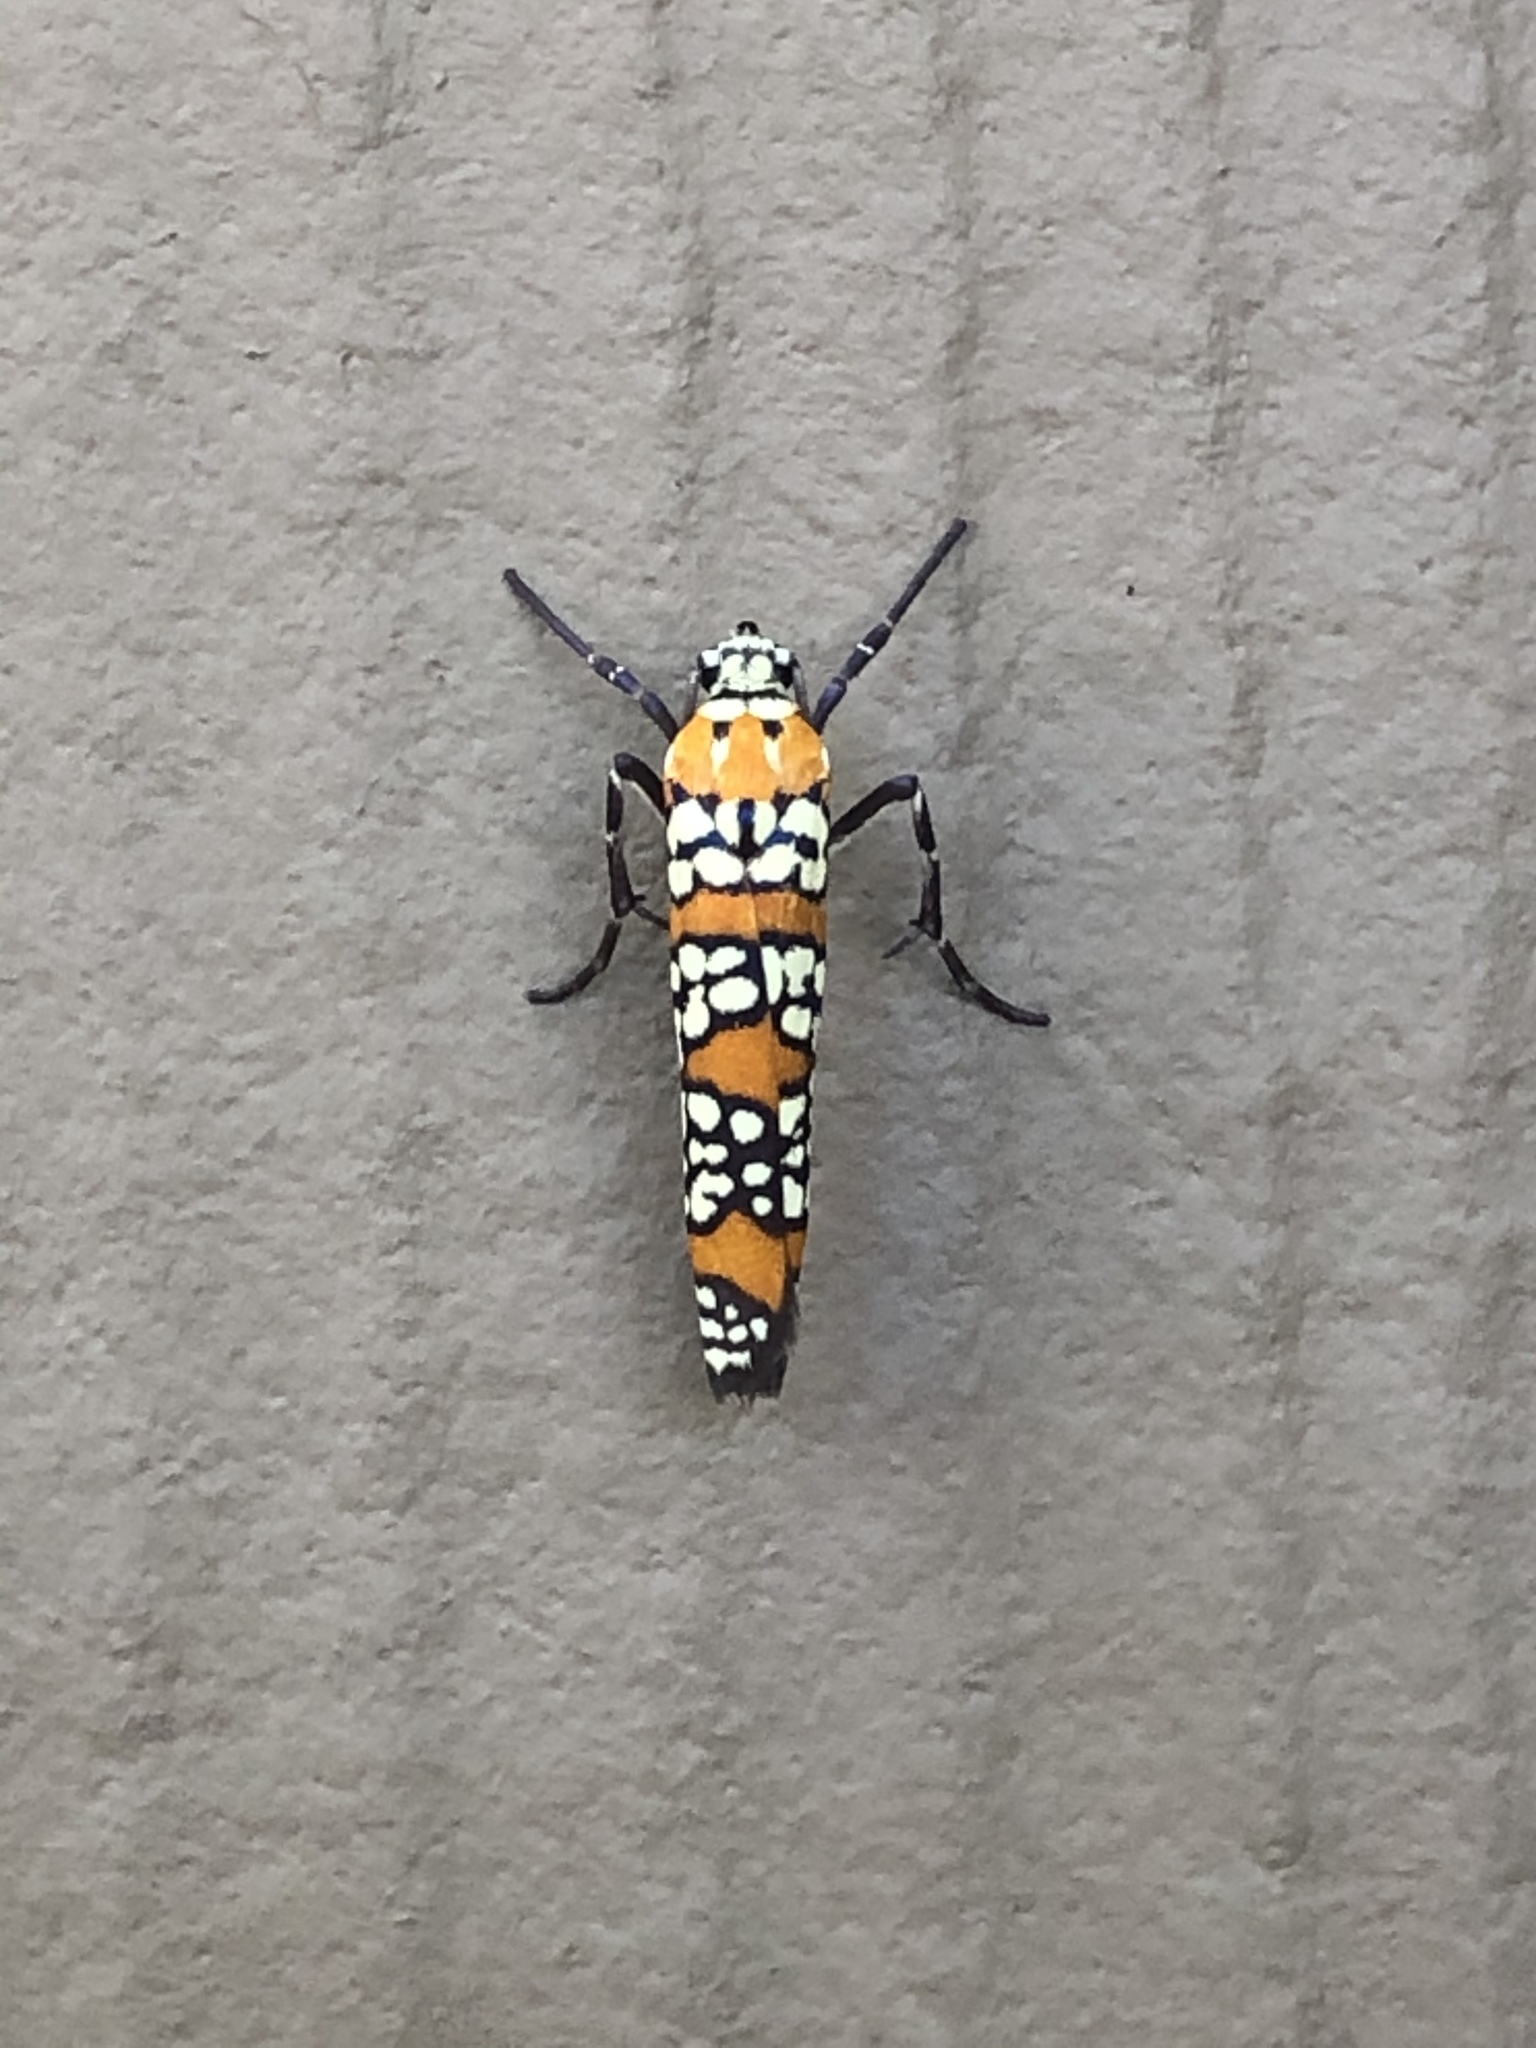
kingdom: Animalia
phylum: Arthropoda
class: Insecta
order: Lepidoptera
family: Attevidae
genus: Atteva
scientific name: Atteva punctella
